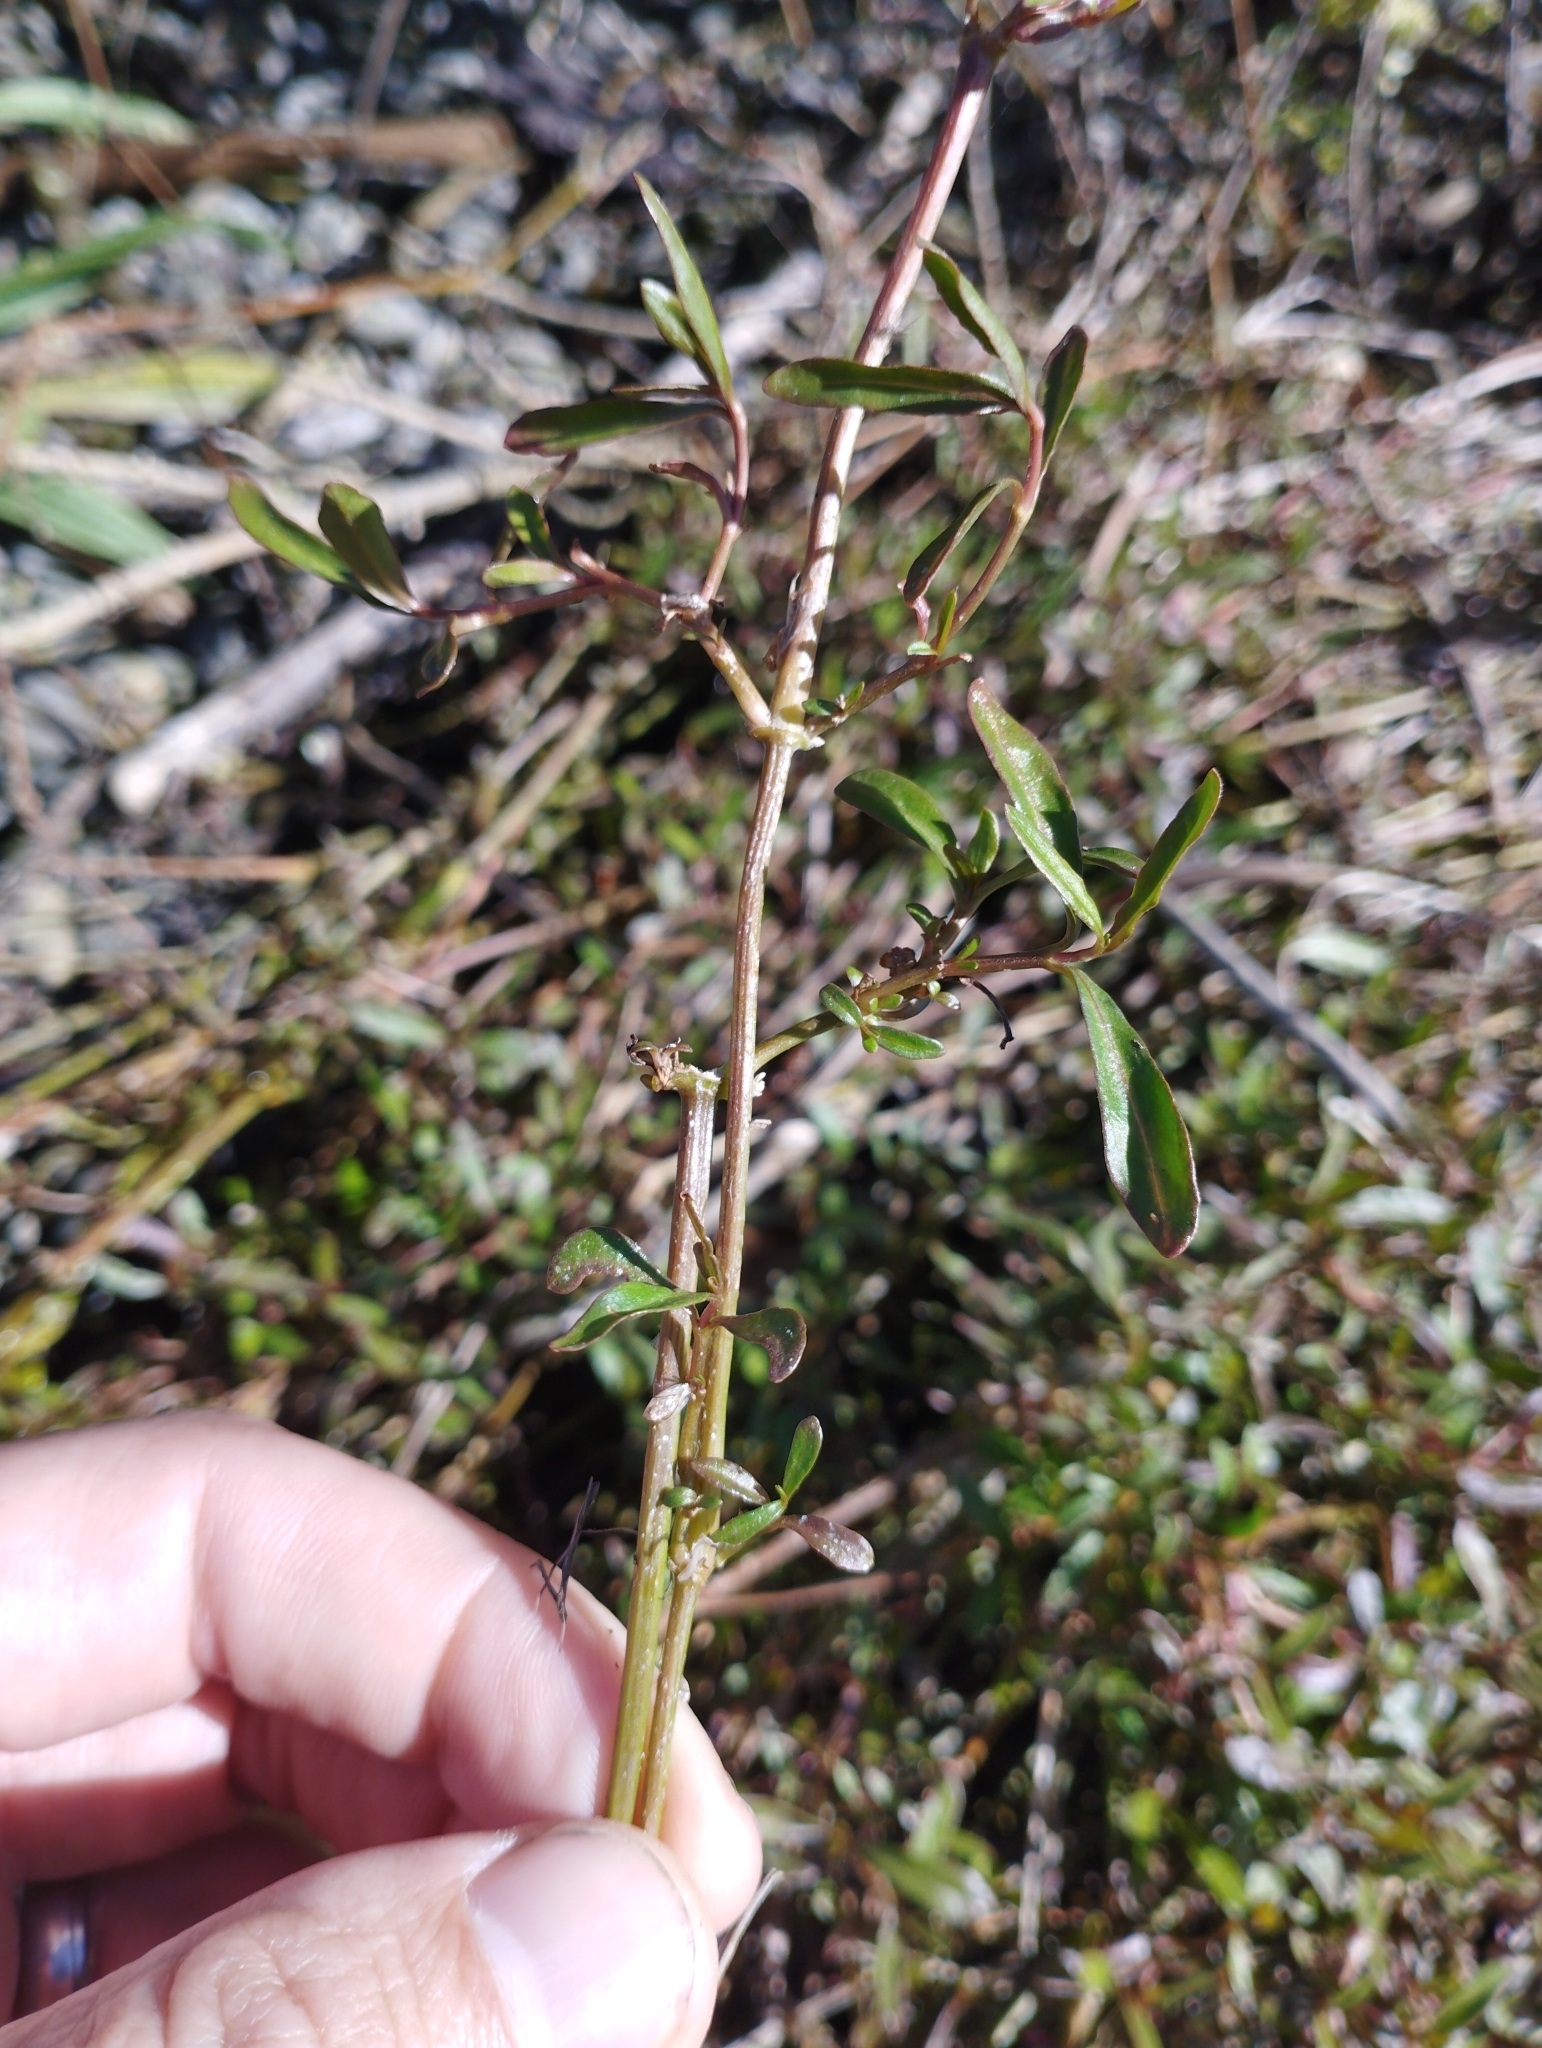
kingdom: Plantae
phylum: Tracheophyta
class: Magnoliopsida
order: Caryophyllales
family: Amaranthaceae
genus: Alternanthera
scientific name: Alternanthera nahui
